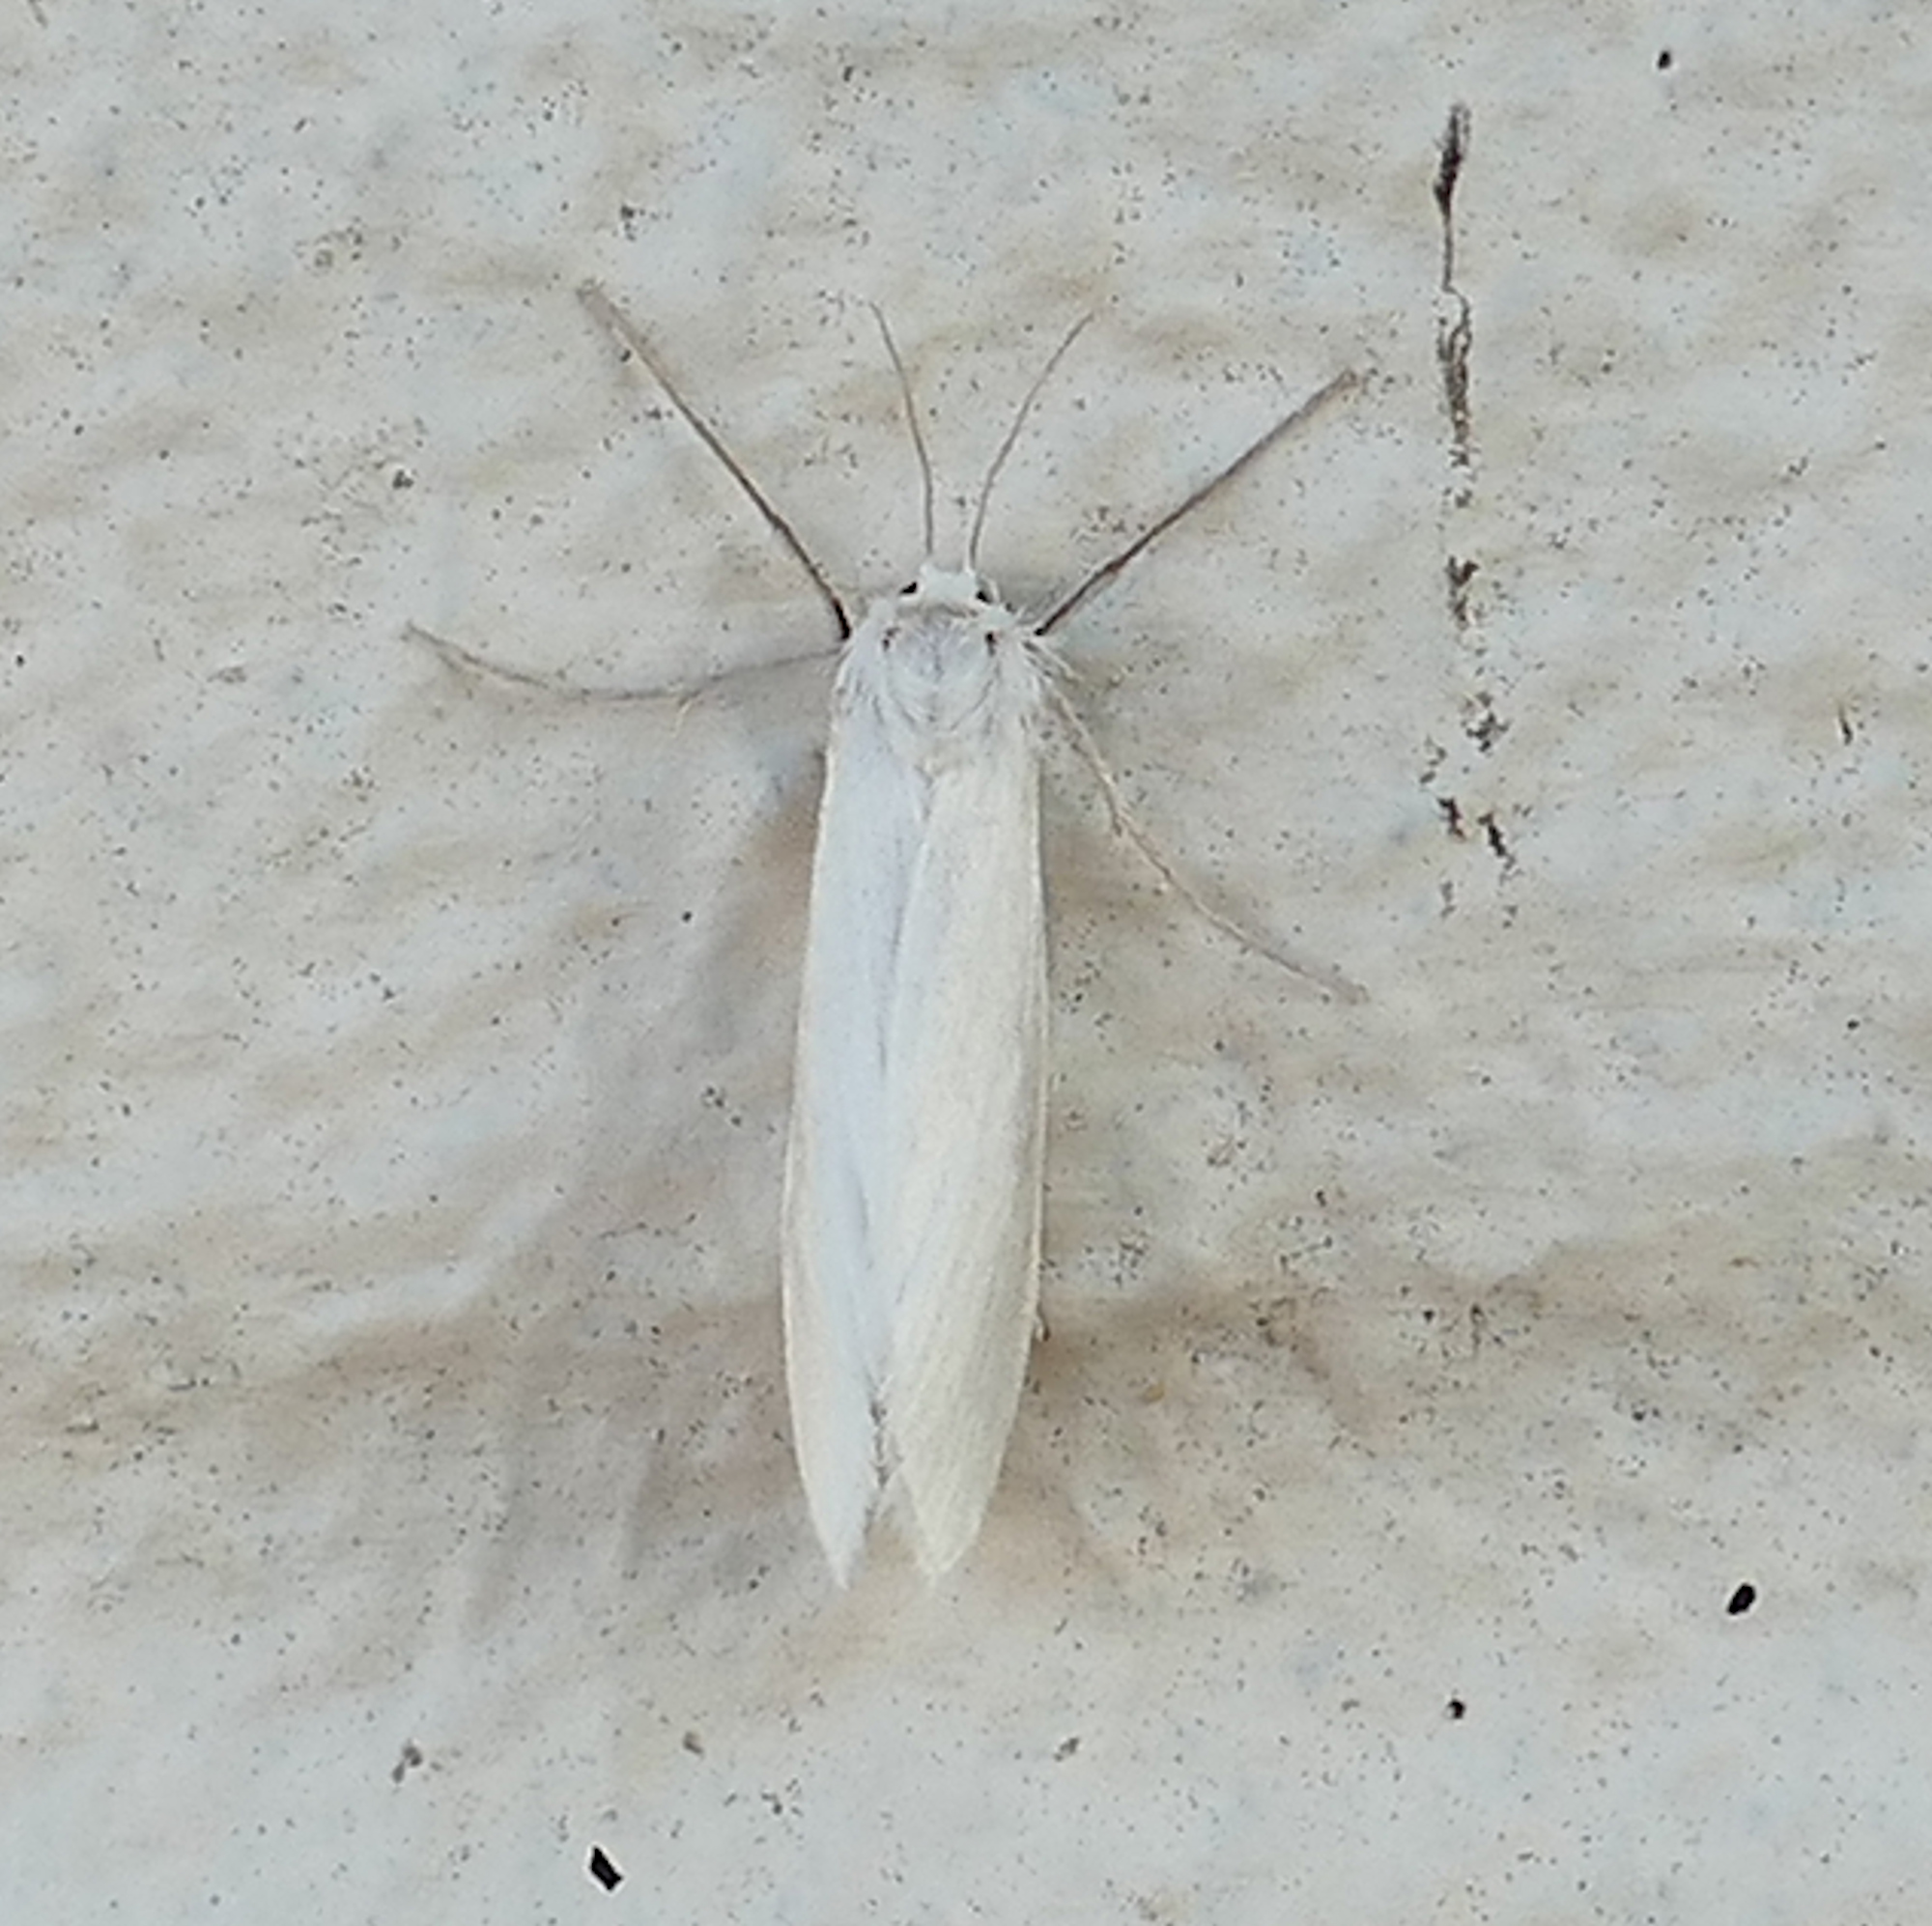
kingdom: Animalia
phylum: Arthropoda
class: Insecta
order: Lepidoptera
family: Crambidae
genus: Rupela
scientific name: Rupela tinctella
